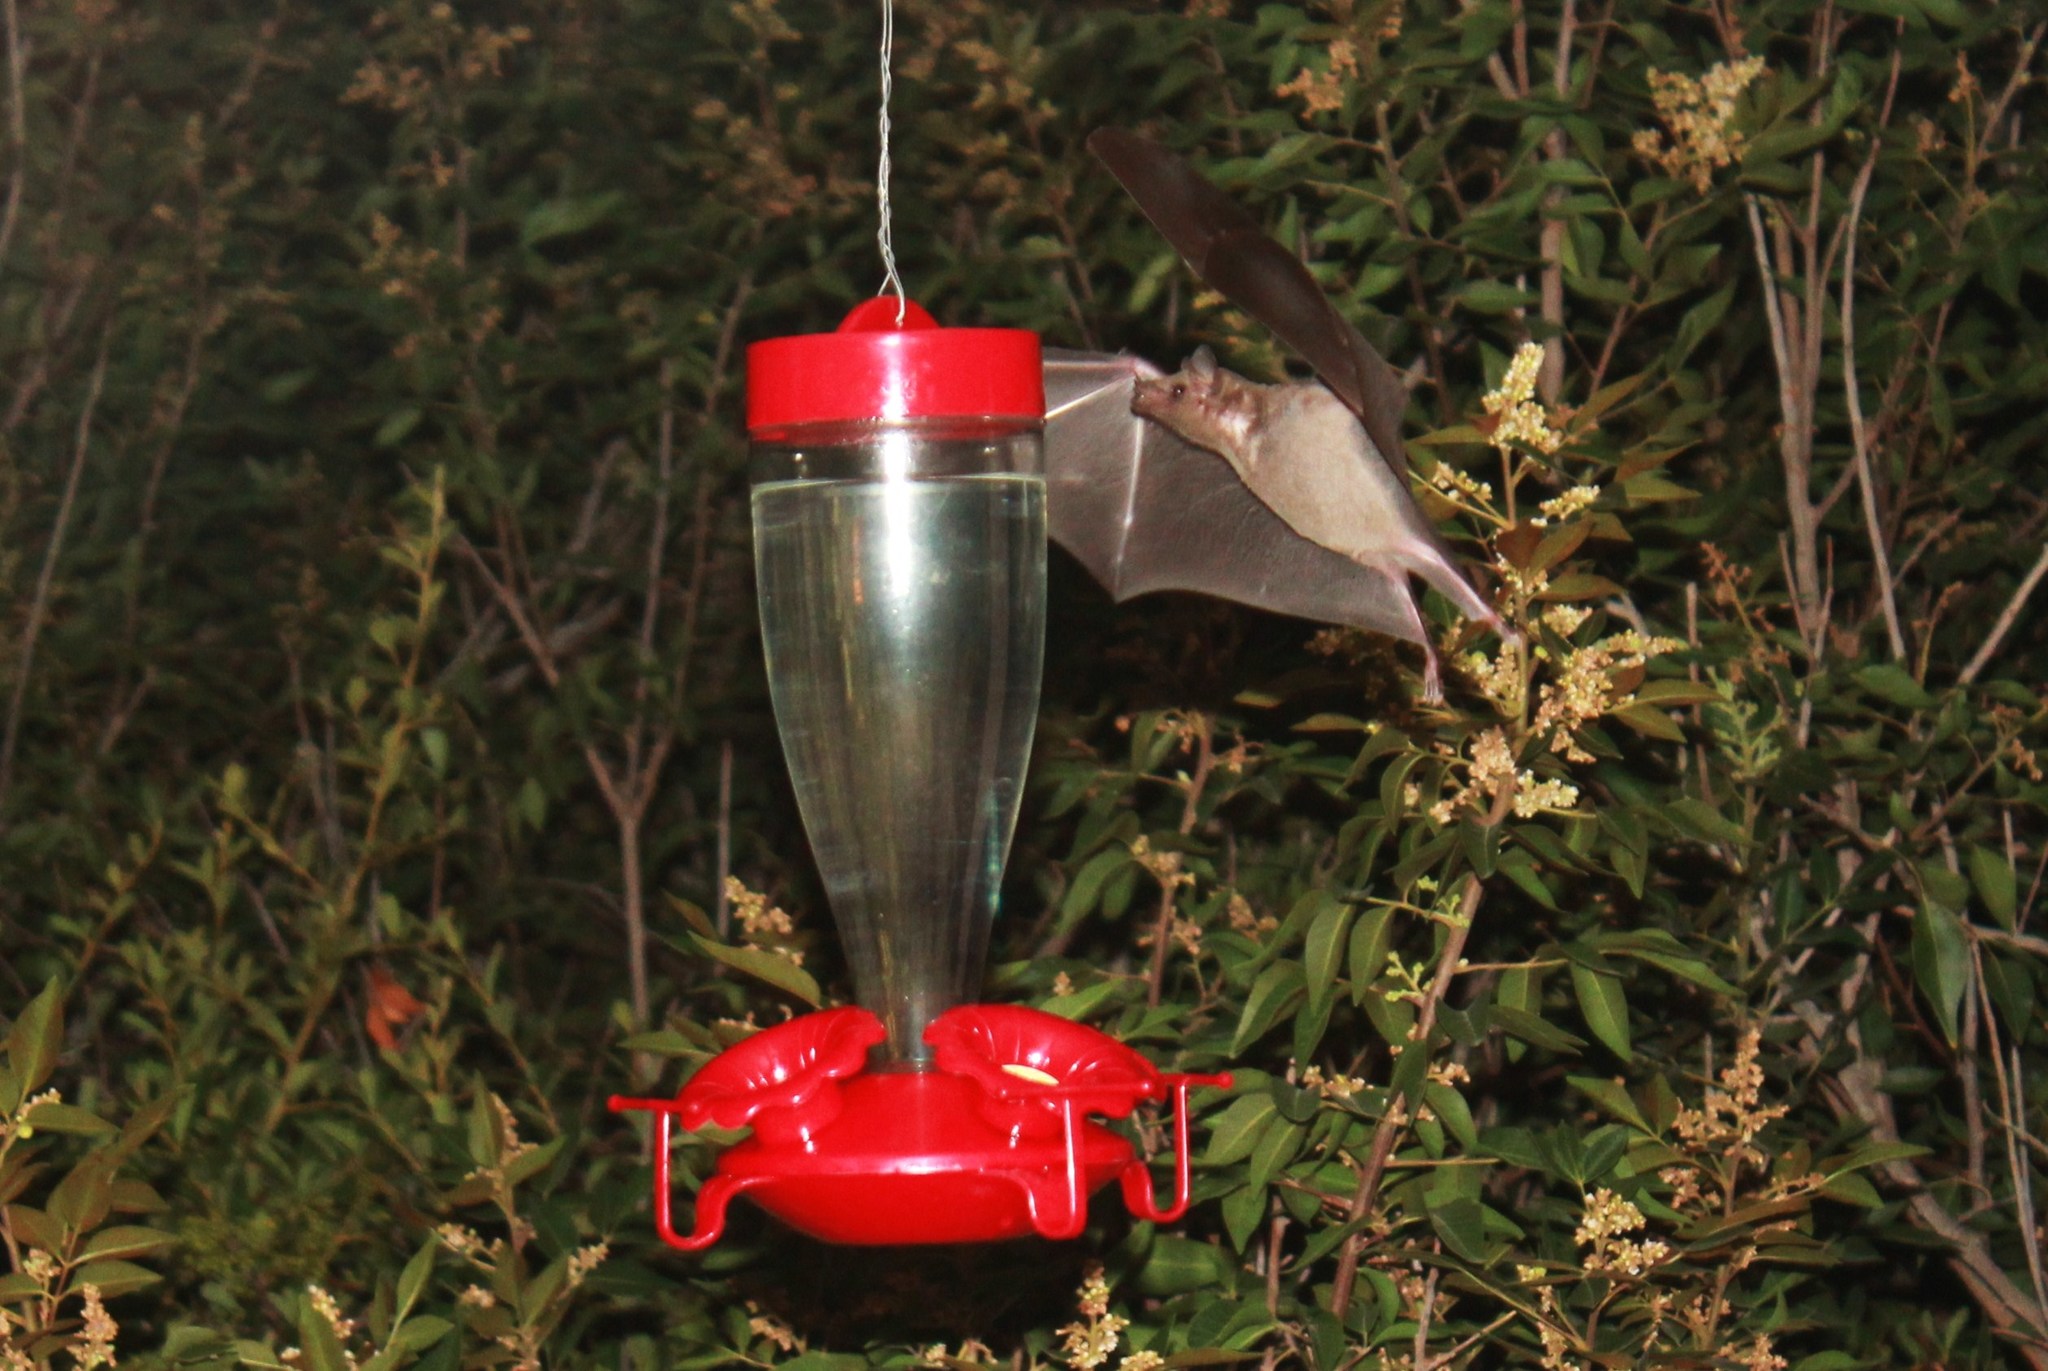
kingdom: Animalia
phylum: Chordata
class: Mammalia
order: Chiroptera
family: Phyllostomidae
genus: Leptonycteris
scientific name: Leptonycteris yerbabuenae
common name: Lesser long-nosed bat
